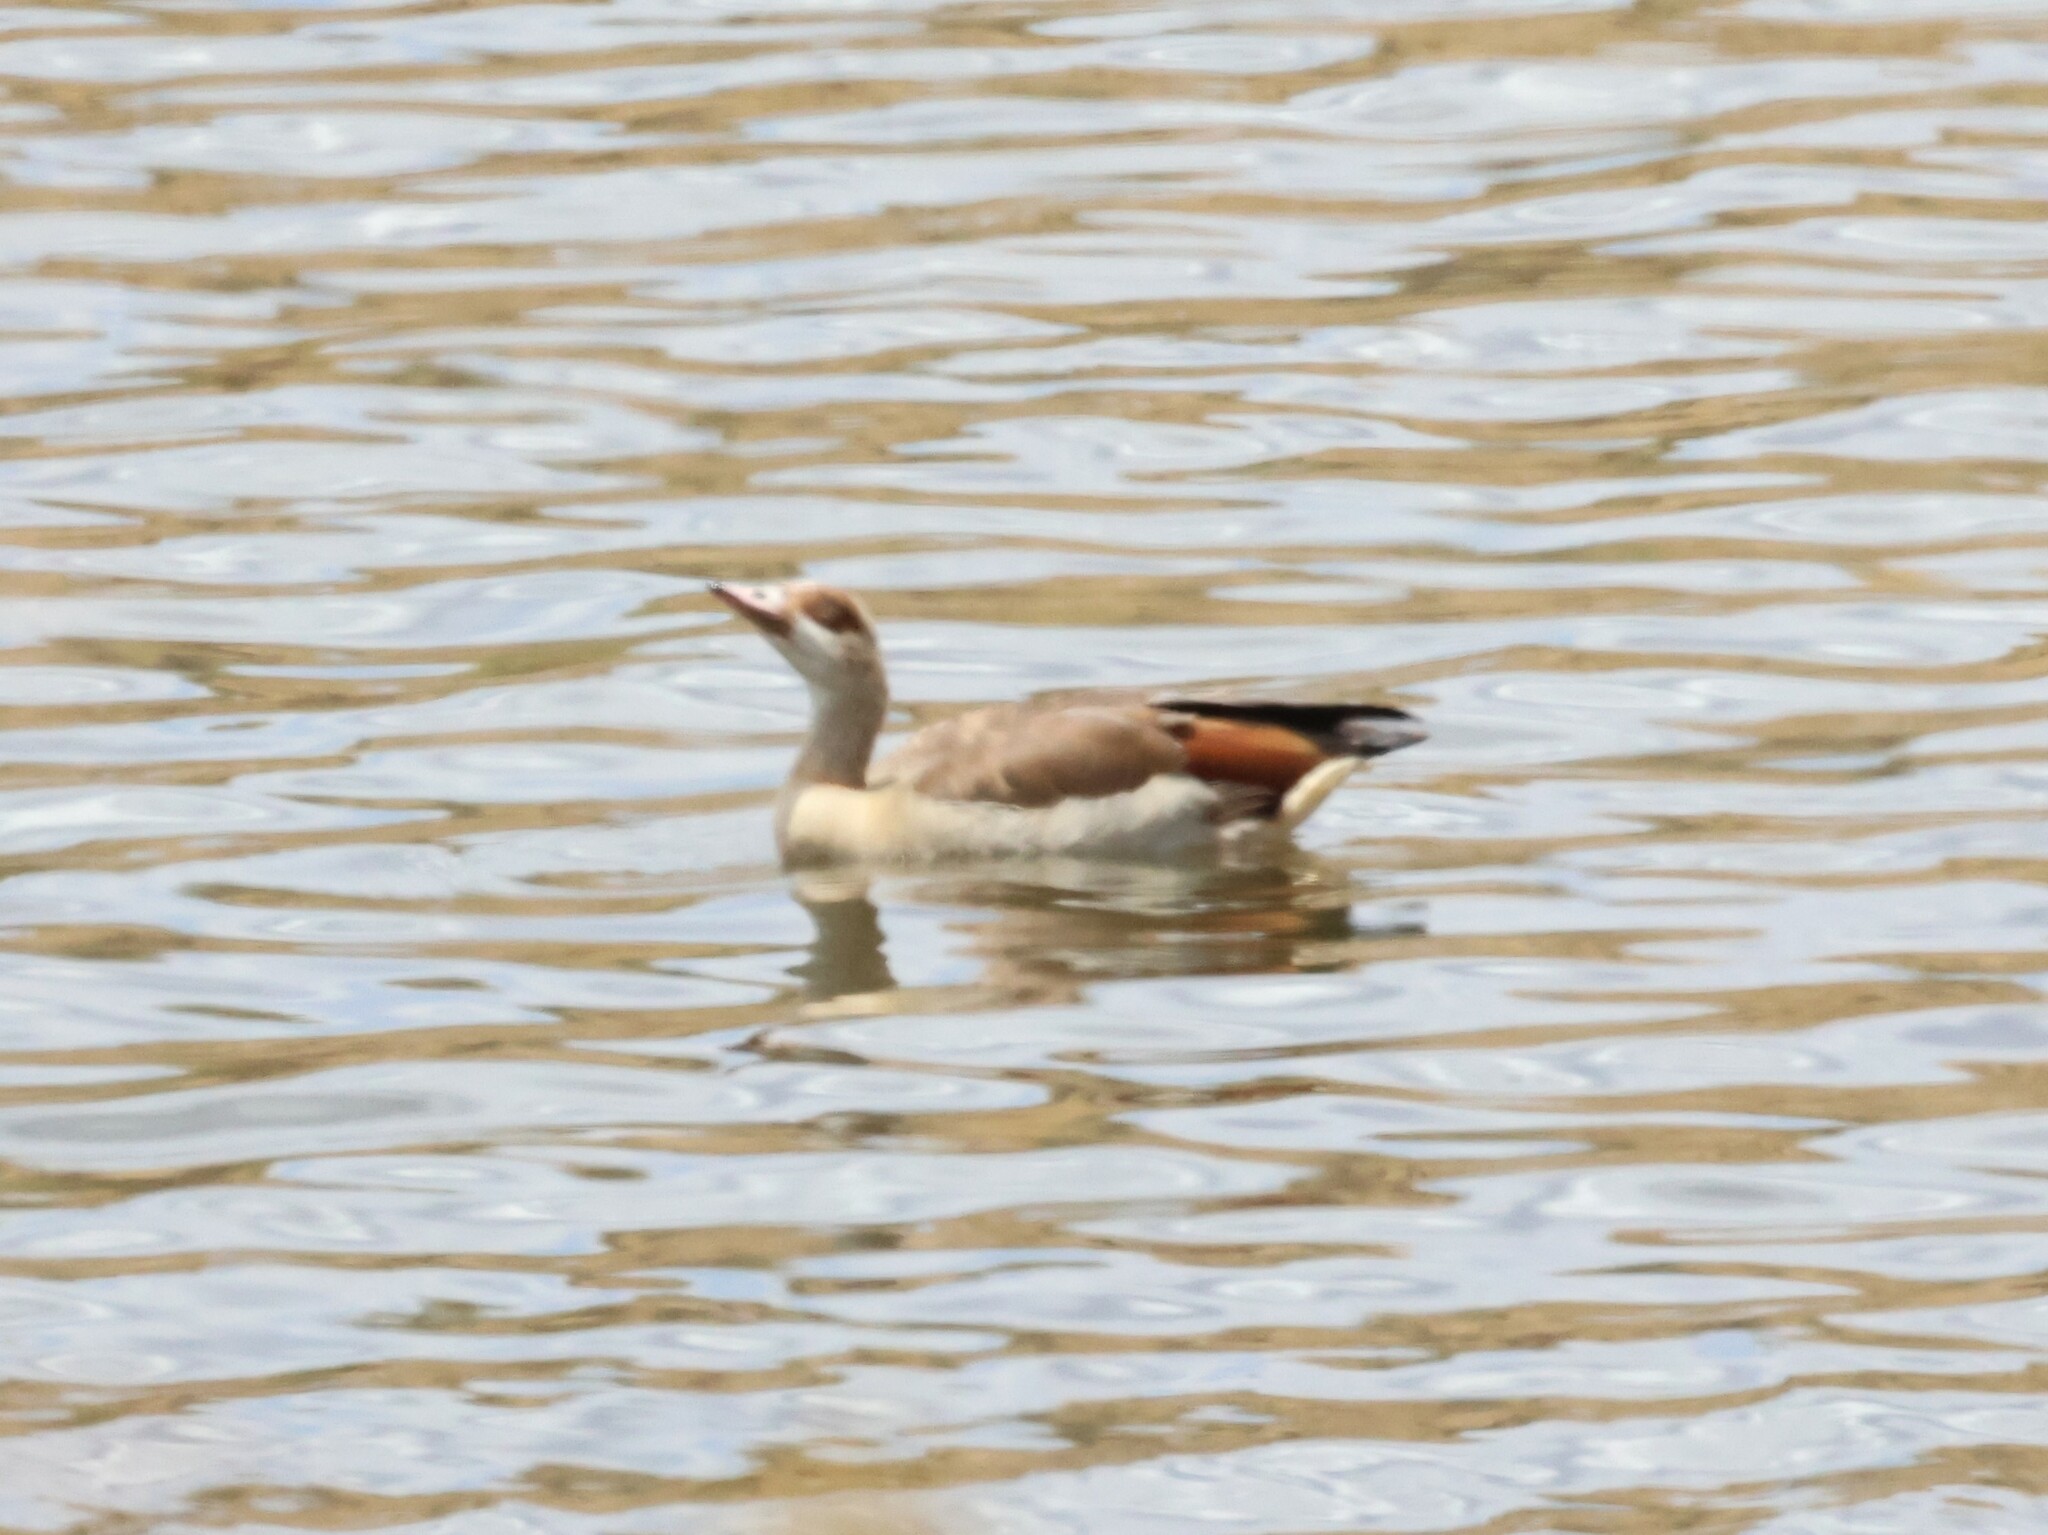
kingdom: Animalia
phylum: Chordata
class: Aves
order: Anseriformes
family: Anatidae
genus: Alopochen
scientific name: Alopochen aegyptiaca
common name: Egyptian goose
